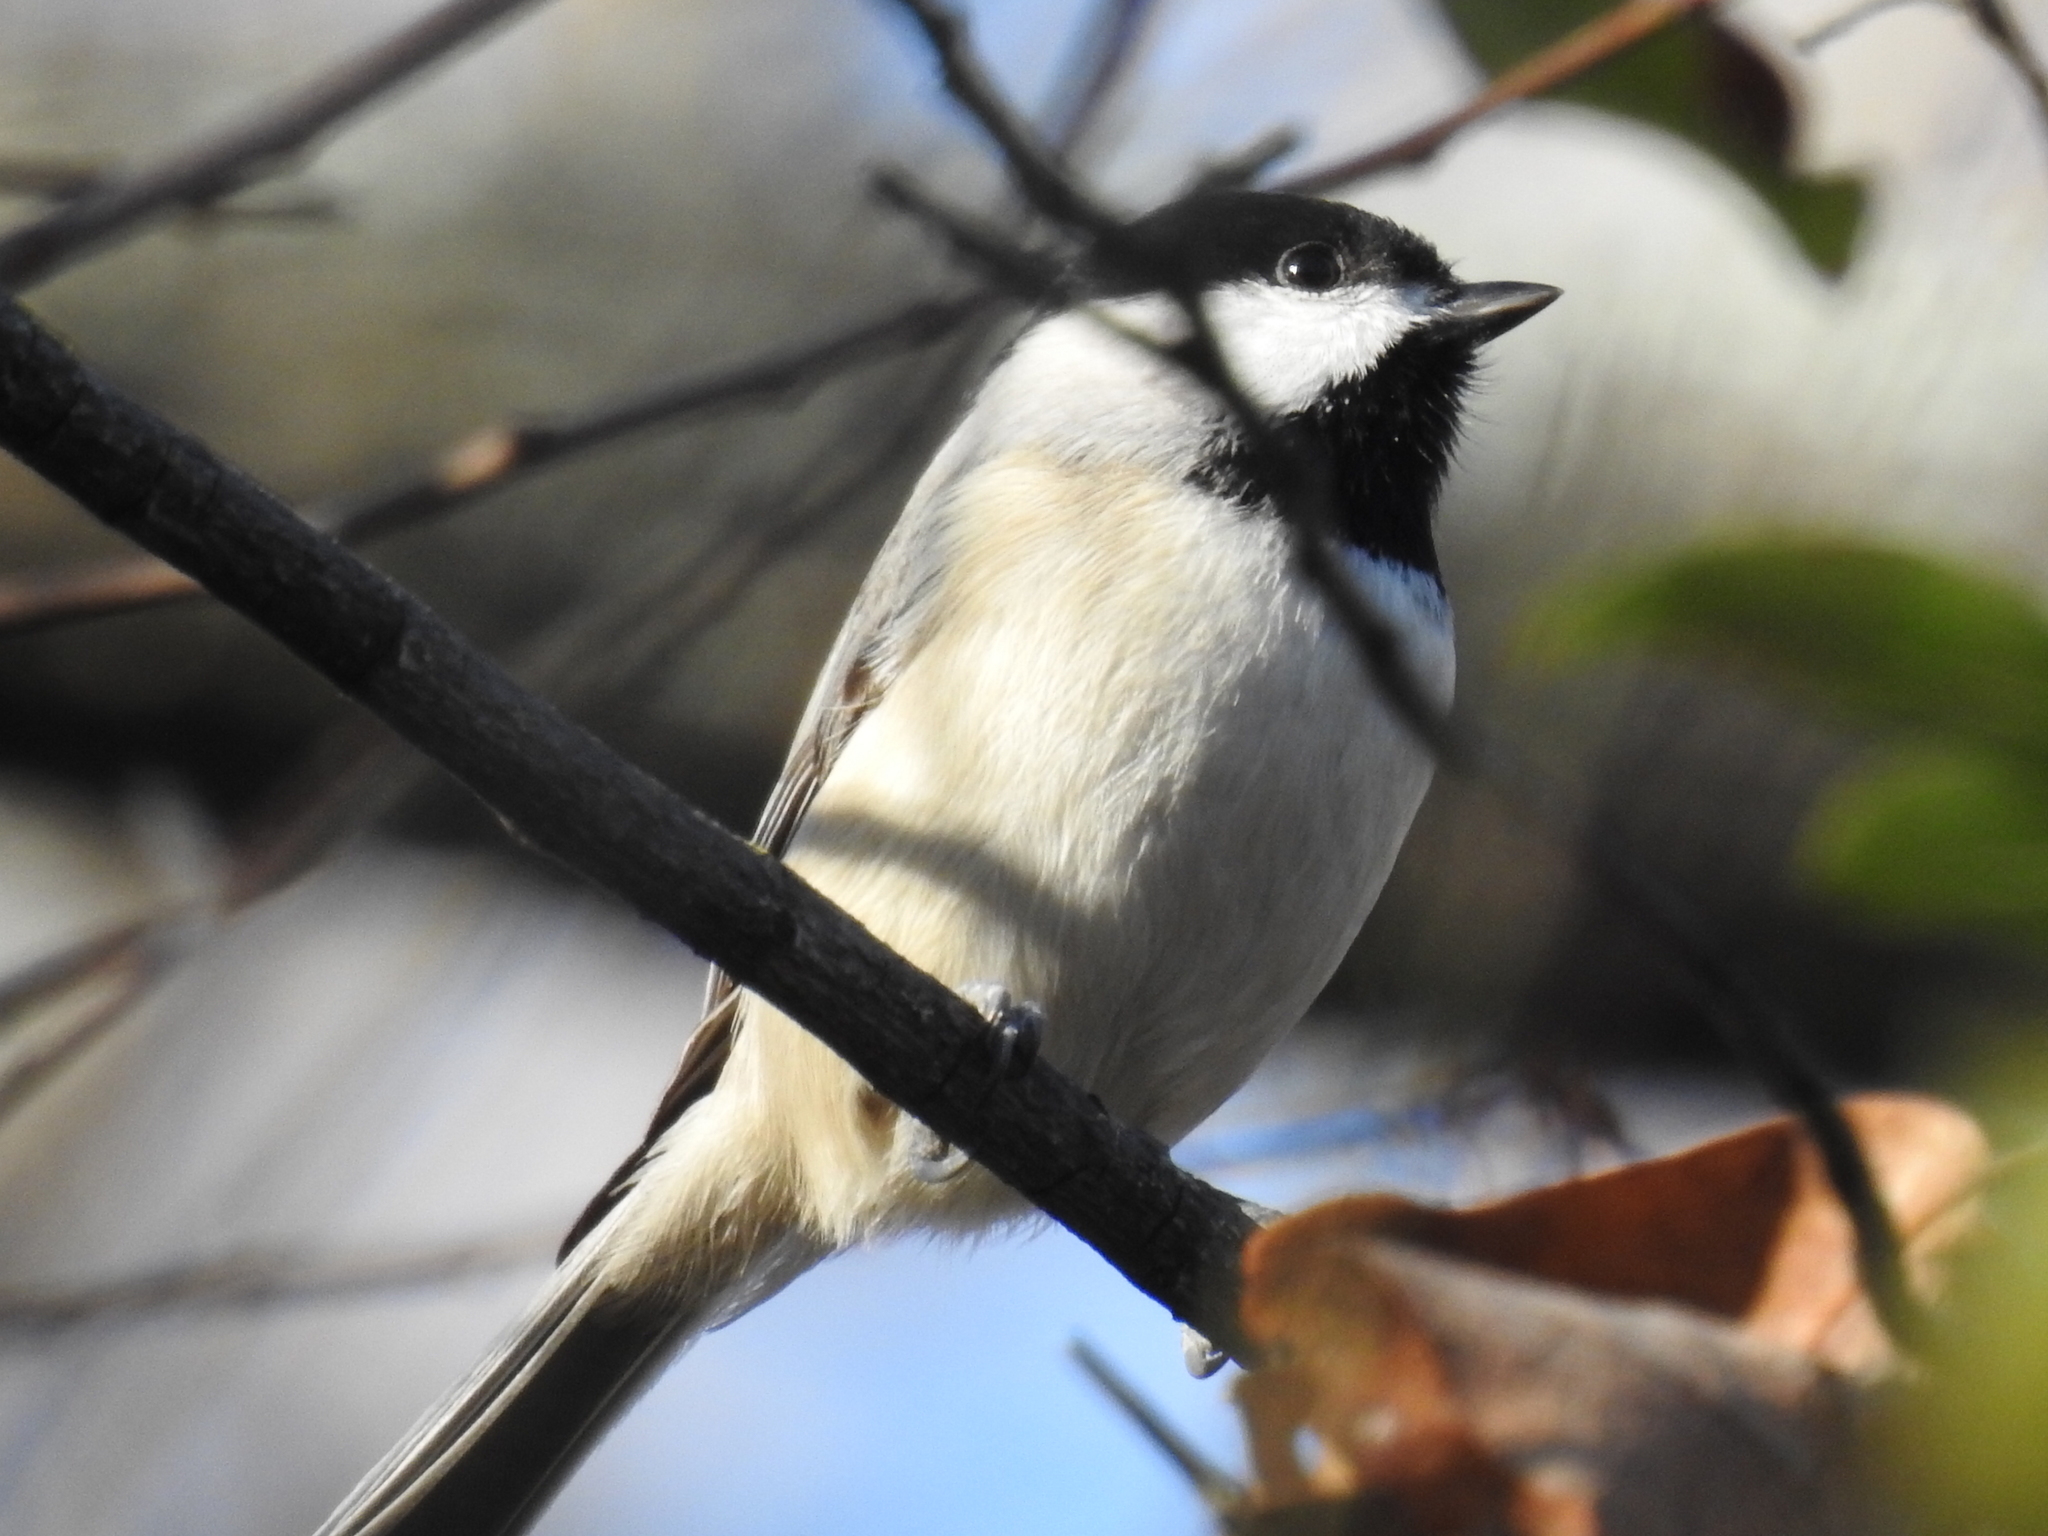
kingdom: Animalia
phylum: Chordata
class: Aves
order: Passeriformes
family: Paridae
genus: Poecile
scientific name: Poecile carolinensis
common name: Carolina chickadee
